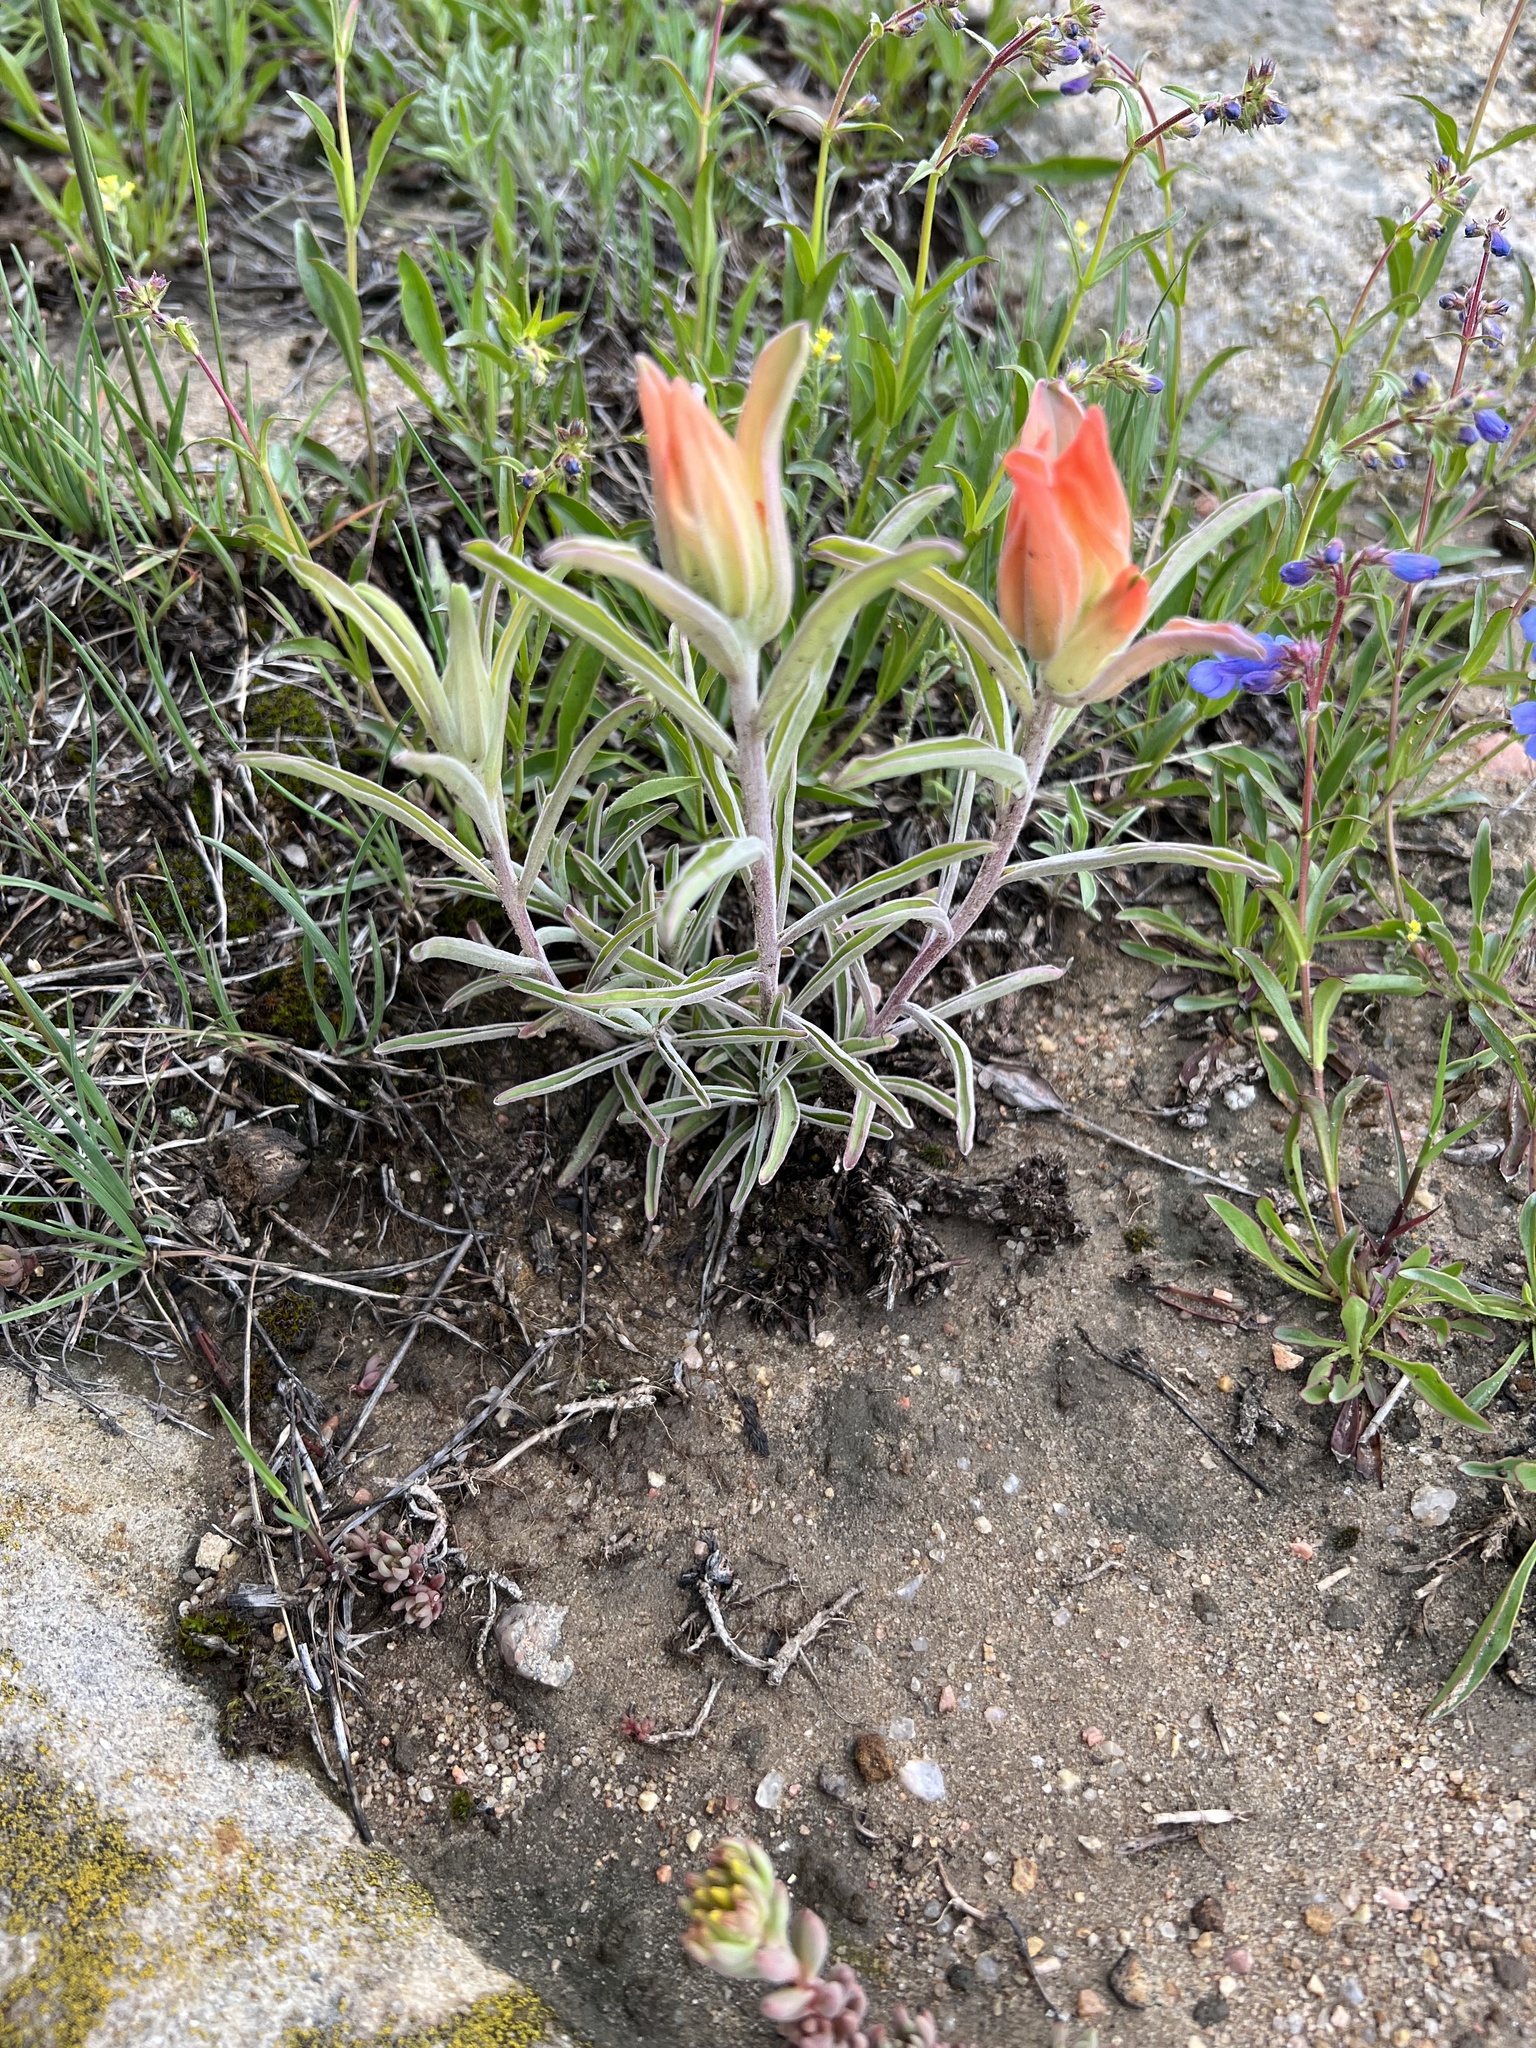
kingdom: Plantae
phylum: Tracheophyta
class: Magnoliopsida
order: Lamiales
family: Orobanchaceae
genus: Castilleja
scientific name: Castilleja integra
